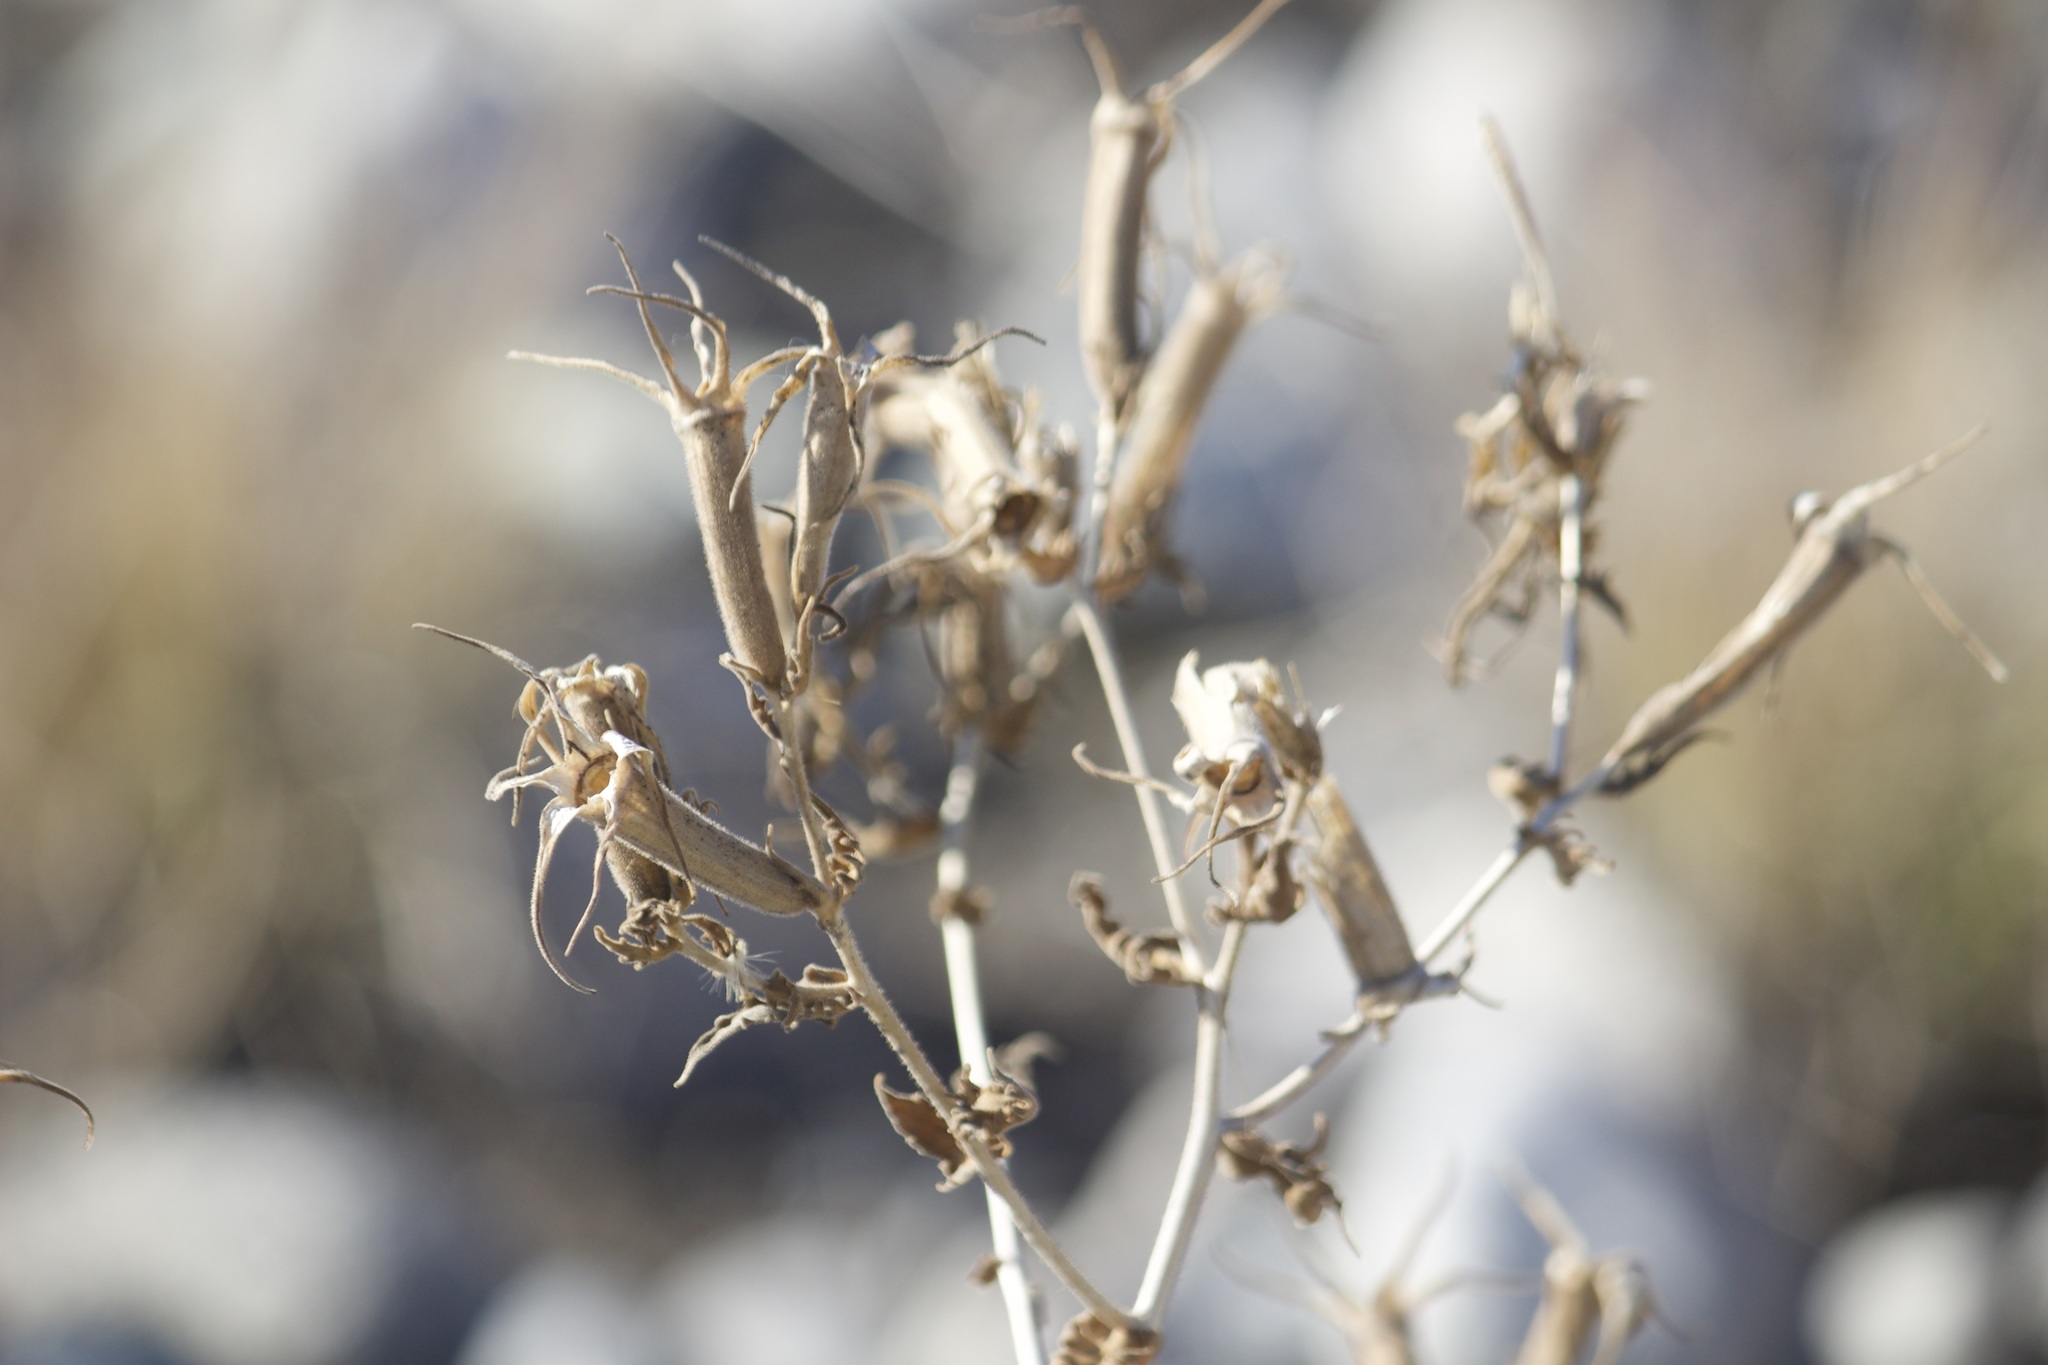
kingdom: Plantae
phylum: Tracheophyta
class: Magnoliopsida
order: Cornales
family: Loasaceae
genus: Mentzelia
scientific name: Mentzelia laevicaulis
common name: Smooth-stem blazingstar
